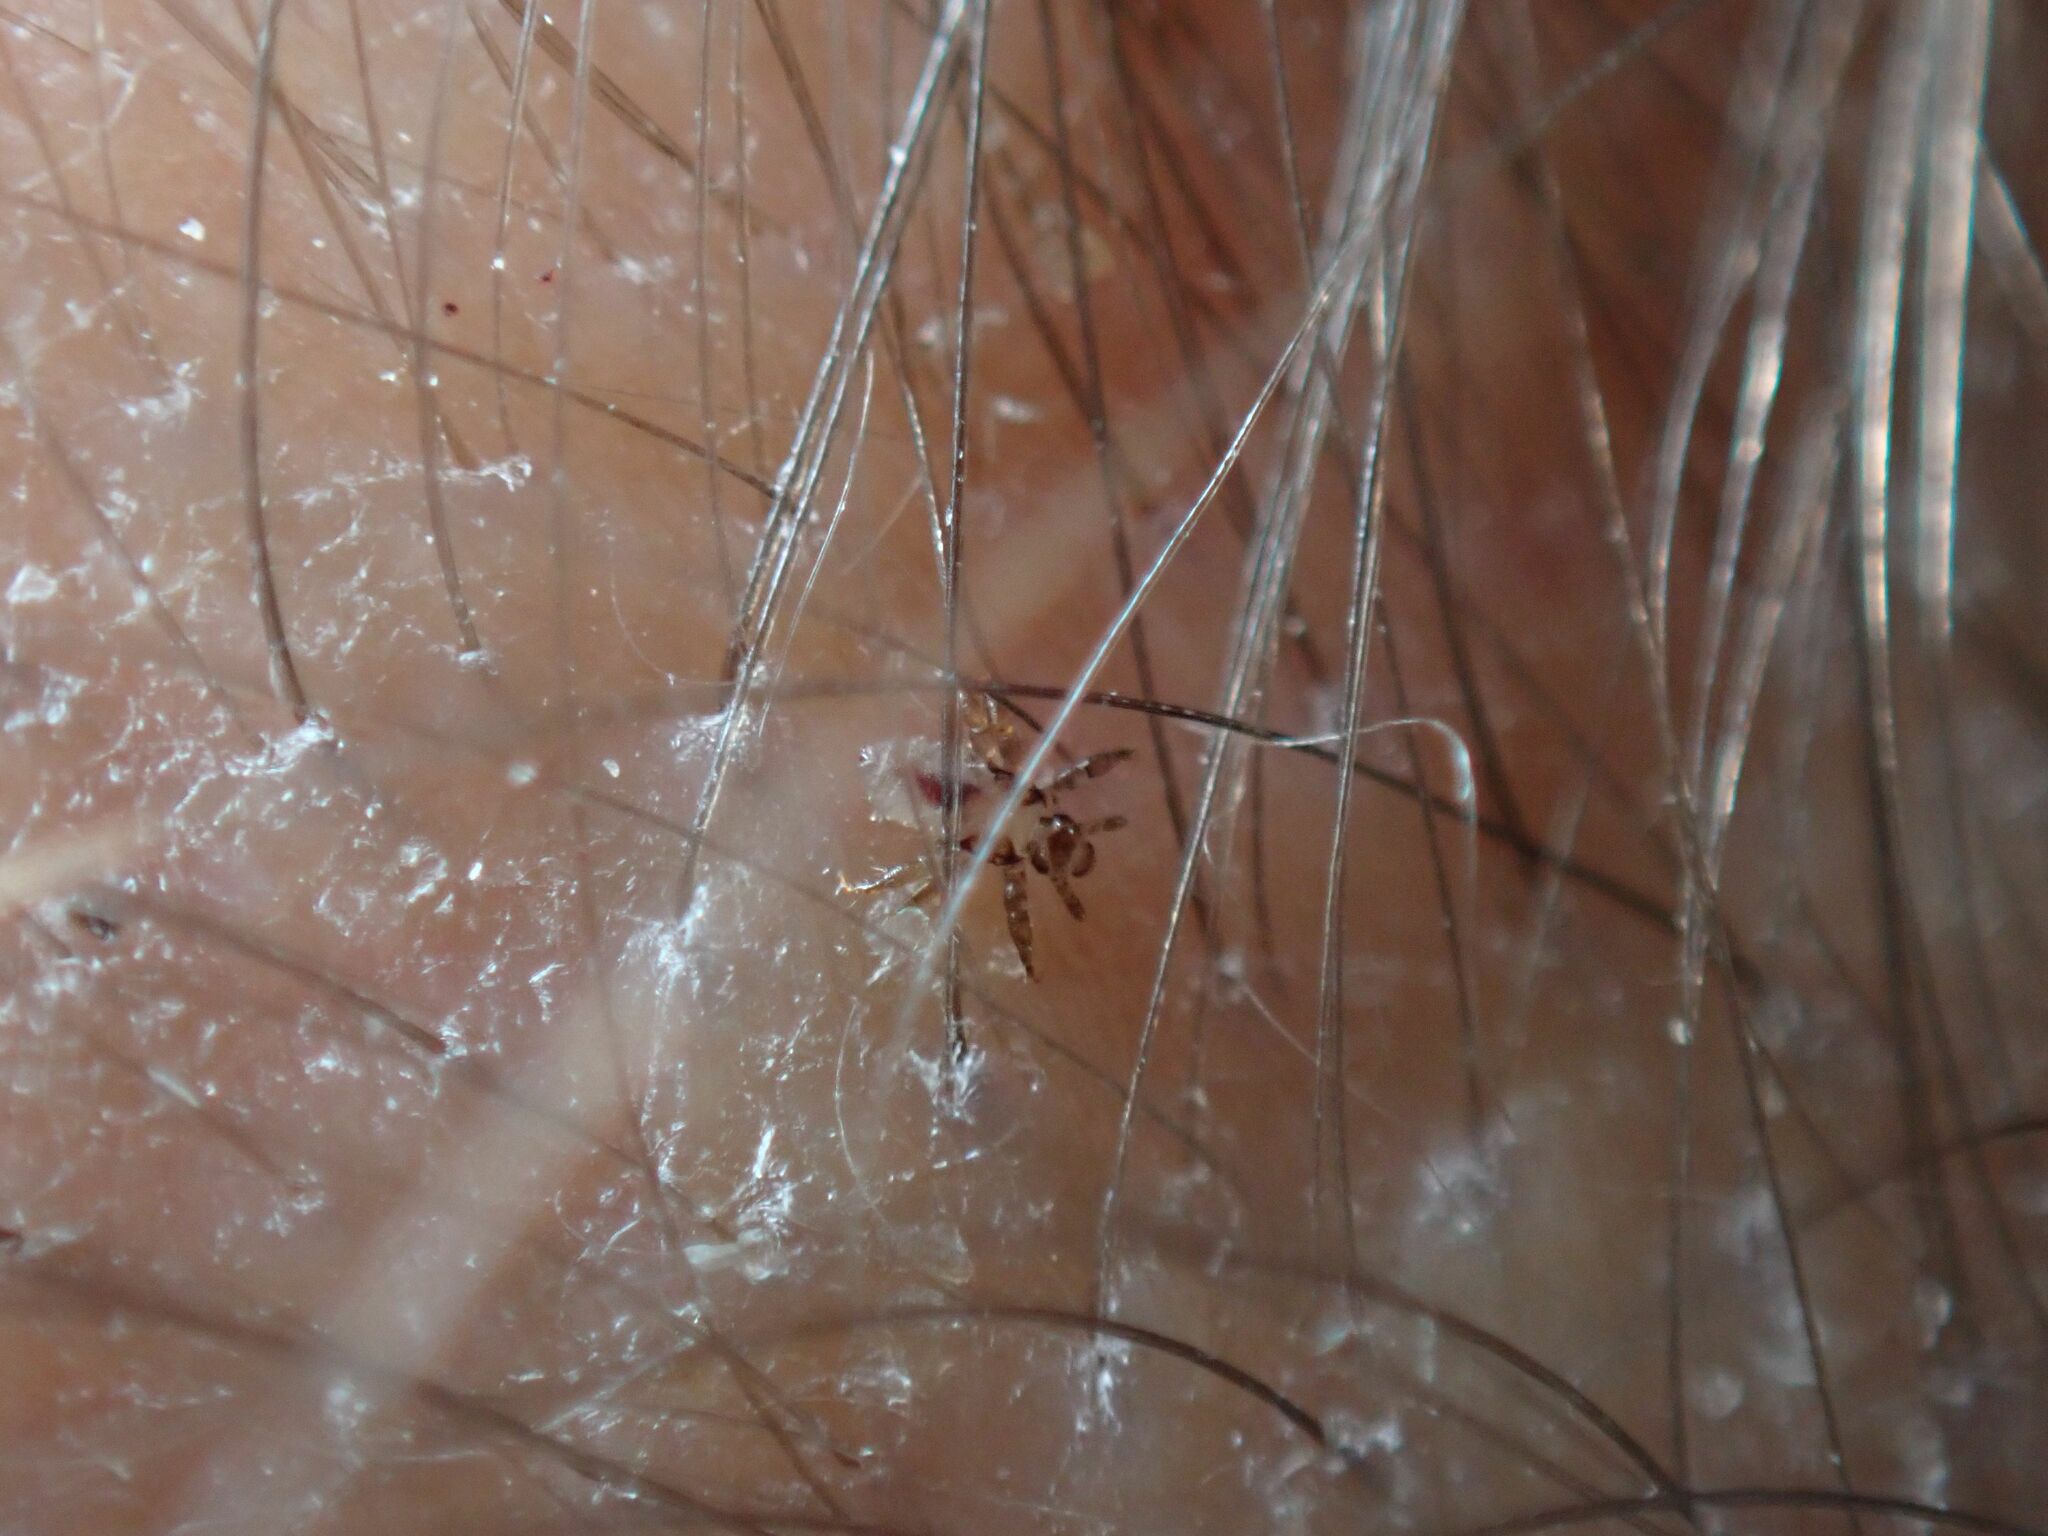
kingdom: Animalia
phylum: Arthropoda
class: Insecta
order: Psocodea
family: Pediculidae
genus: Pediculus
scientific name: Pediculus humanus
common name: Body louse
